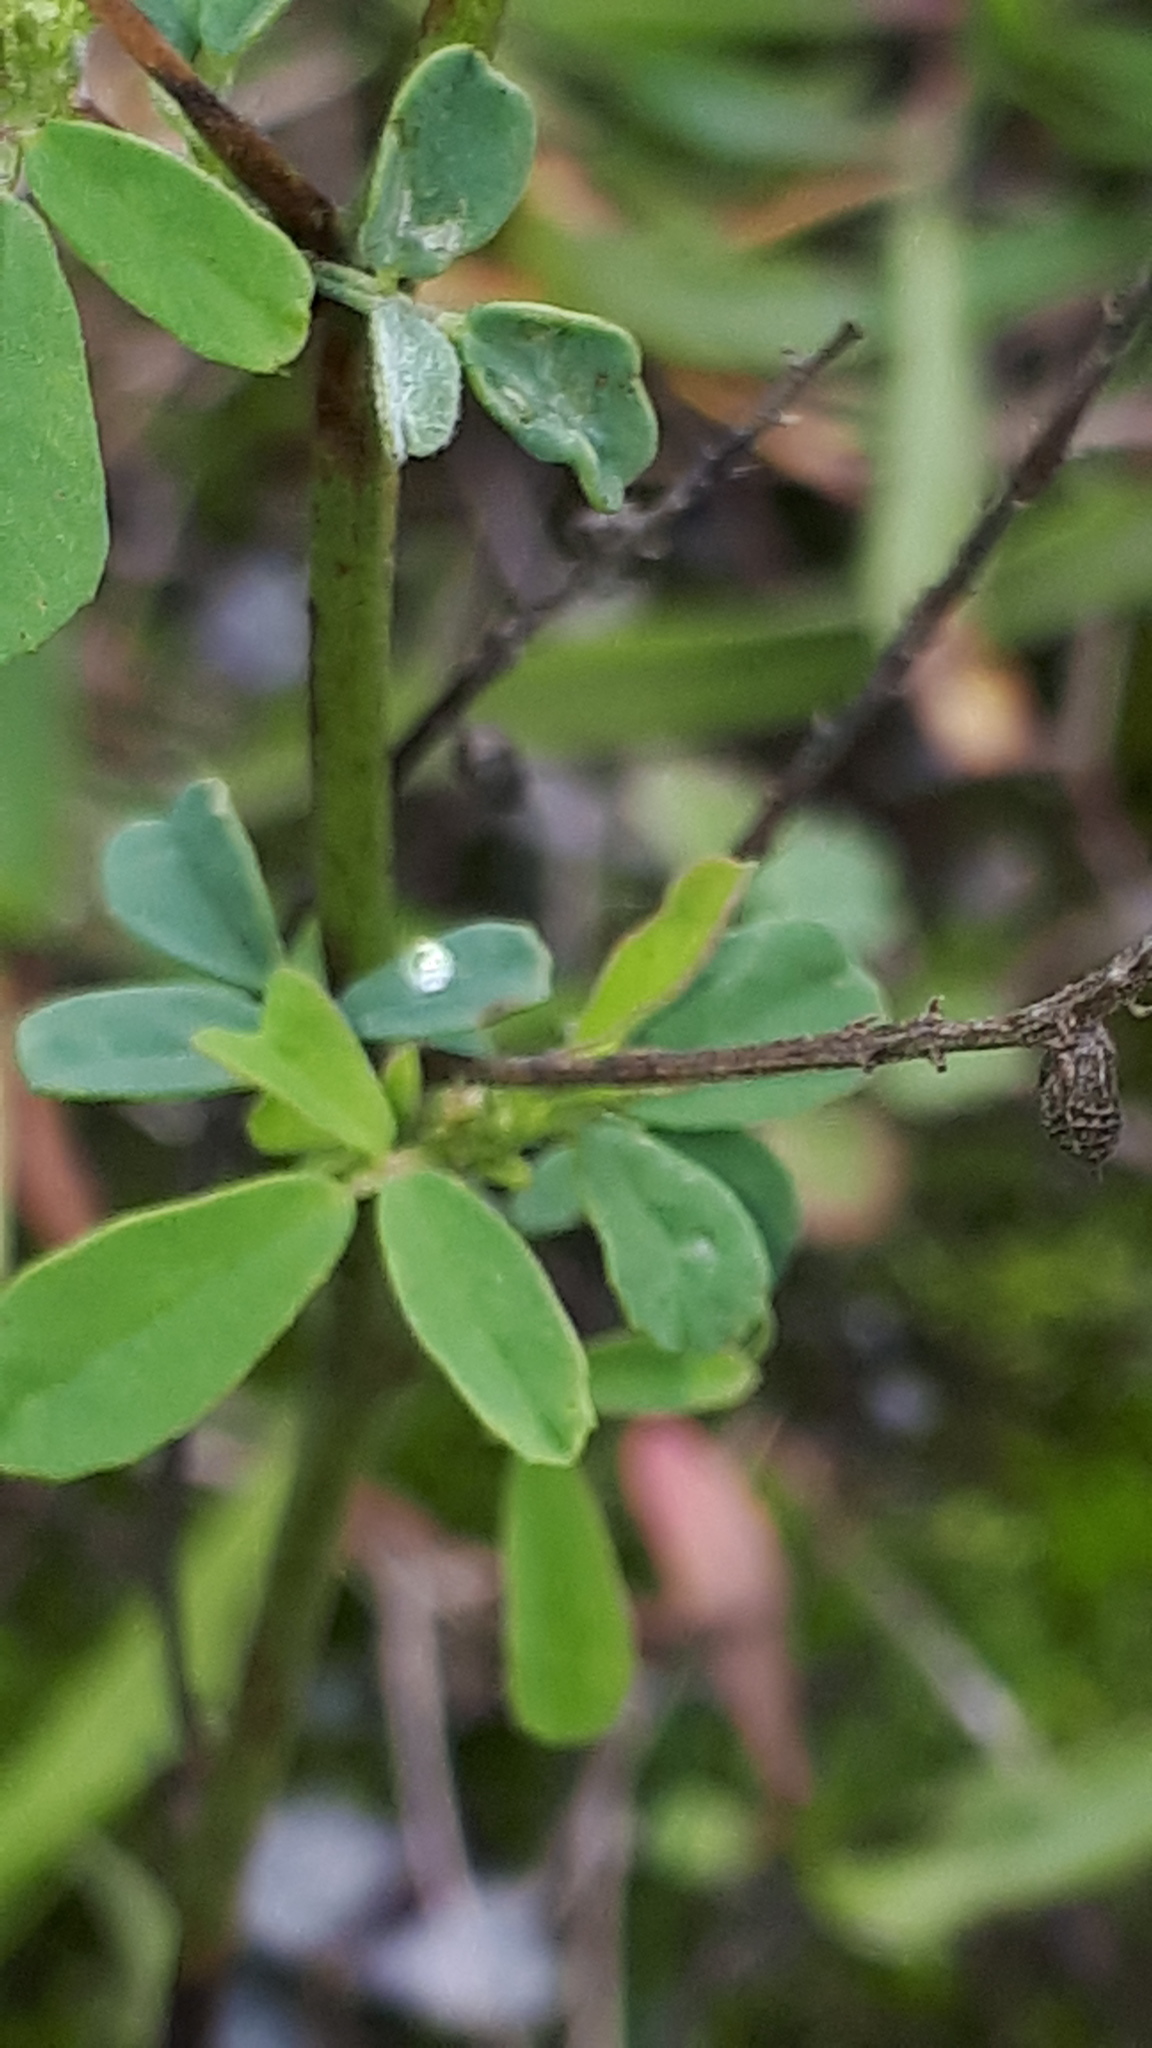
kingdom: Plantae
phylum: Tracheophyta
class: Magnoliopsida
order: Fabales
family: Fabaceae
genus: Melilotus
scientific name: Melilotus albus
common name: White melilot
